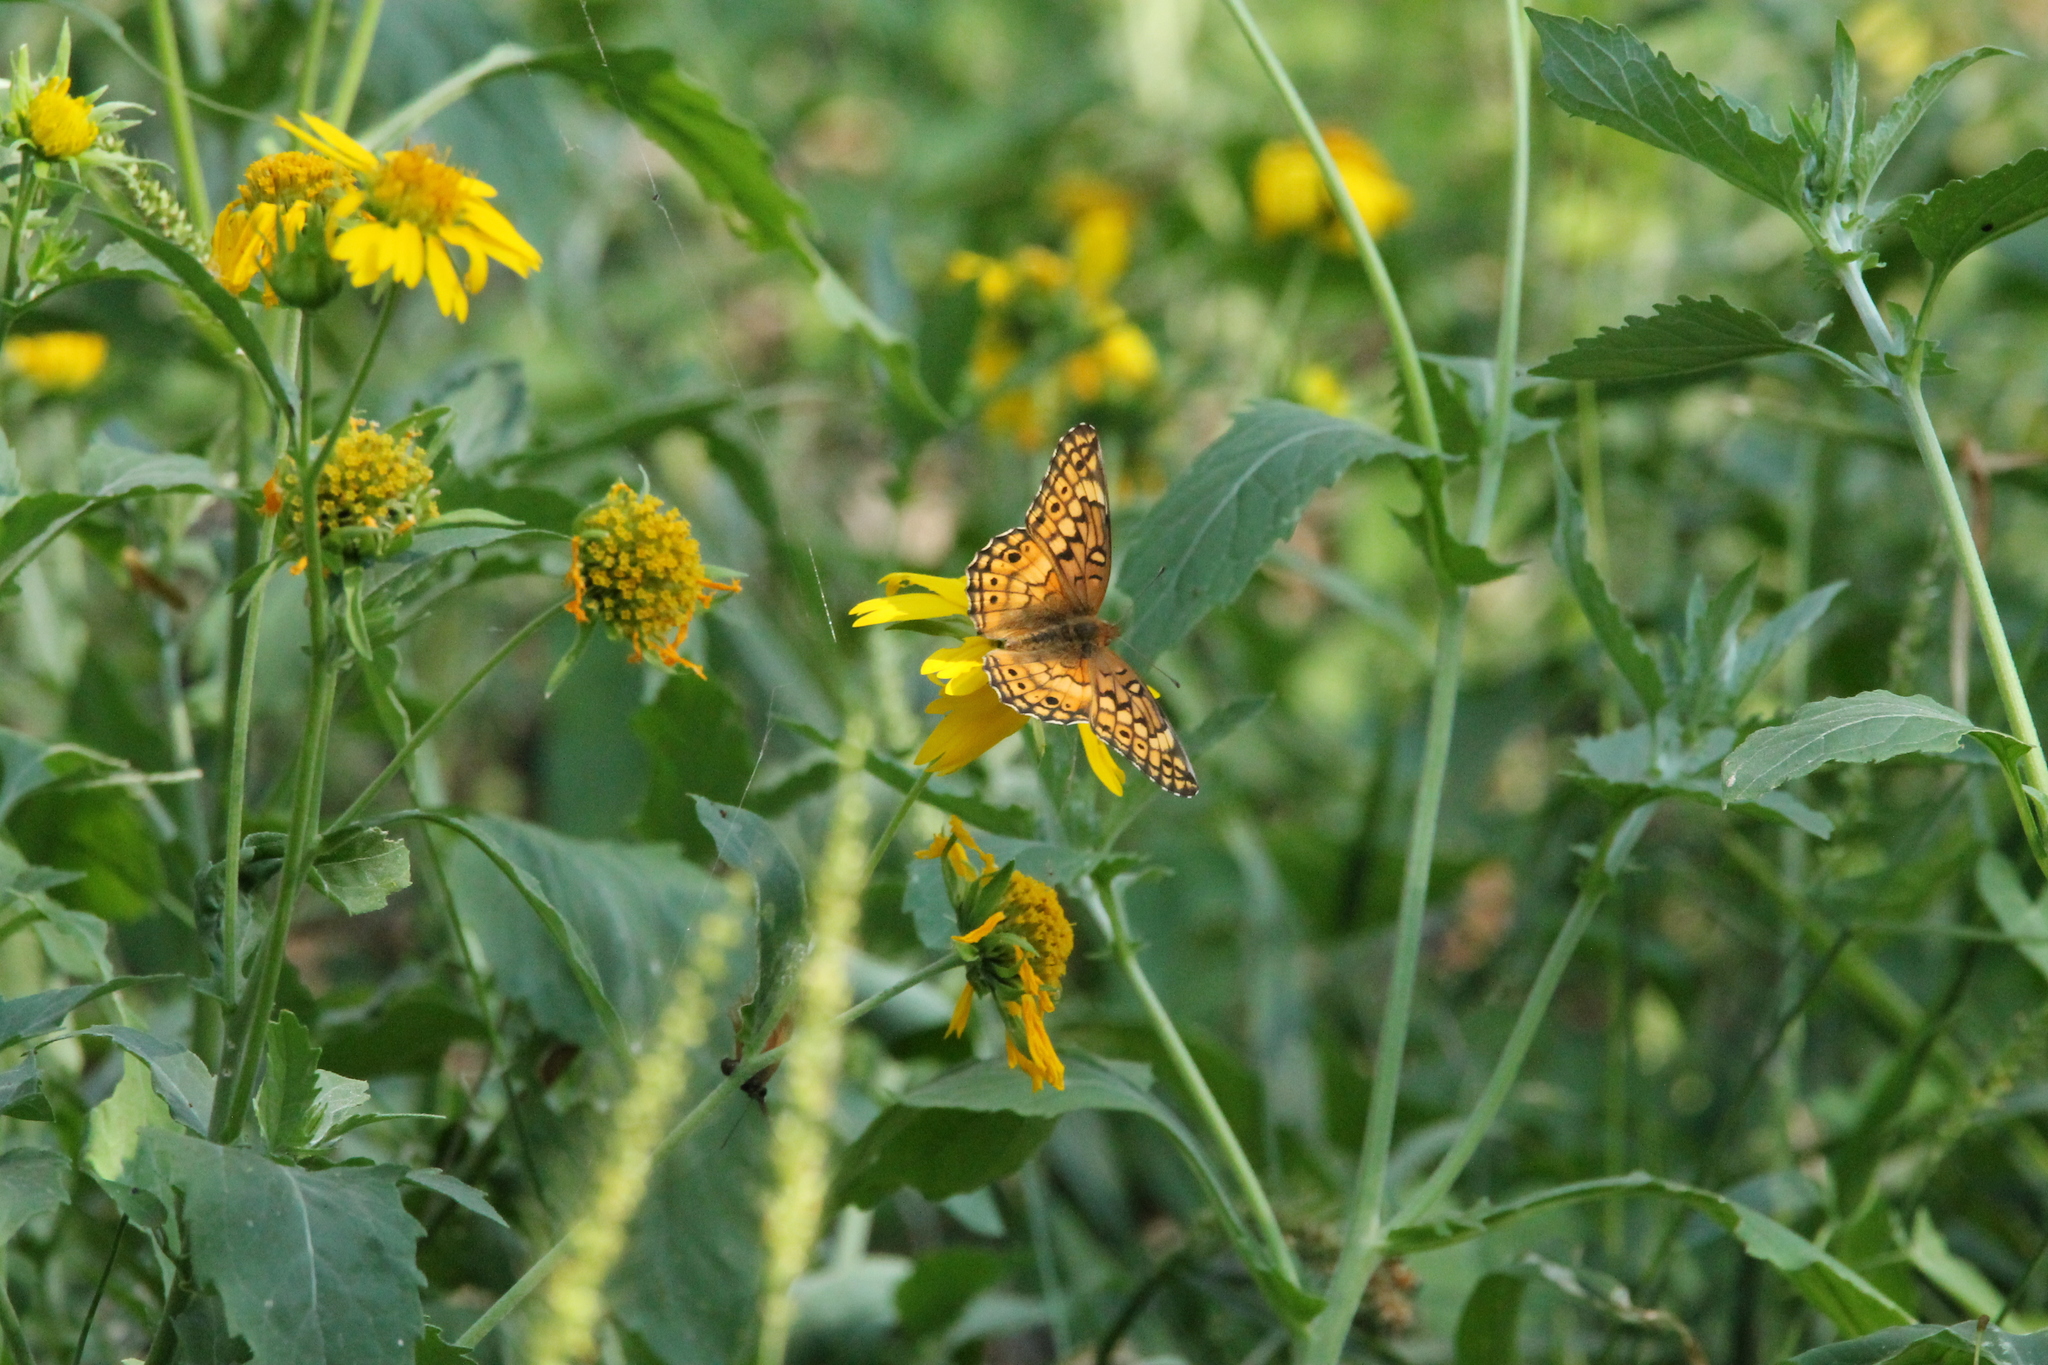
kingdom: Animalia
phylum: Arthropoda
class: Insecta
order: Lepidoptera
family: Nymphalidae
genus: Euptoieta
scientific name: Euptoieta claudia
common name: Variegated fritillary
